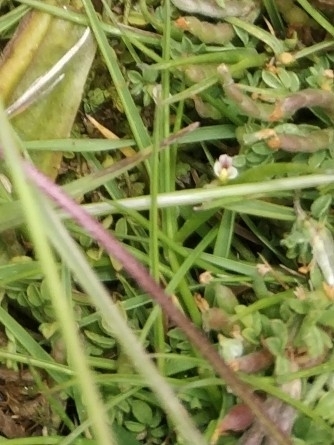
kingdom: Plantae
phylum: Tracheophyta
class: Magnoliopsida
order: Fabales
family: Fabaceae
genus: Ornithopus
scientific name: Ornithopus perpusillus
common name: Bird's-foot
